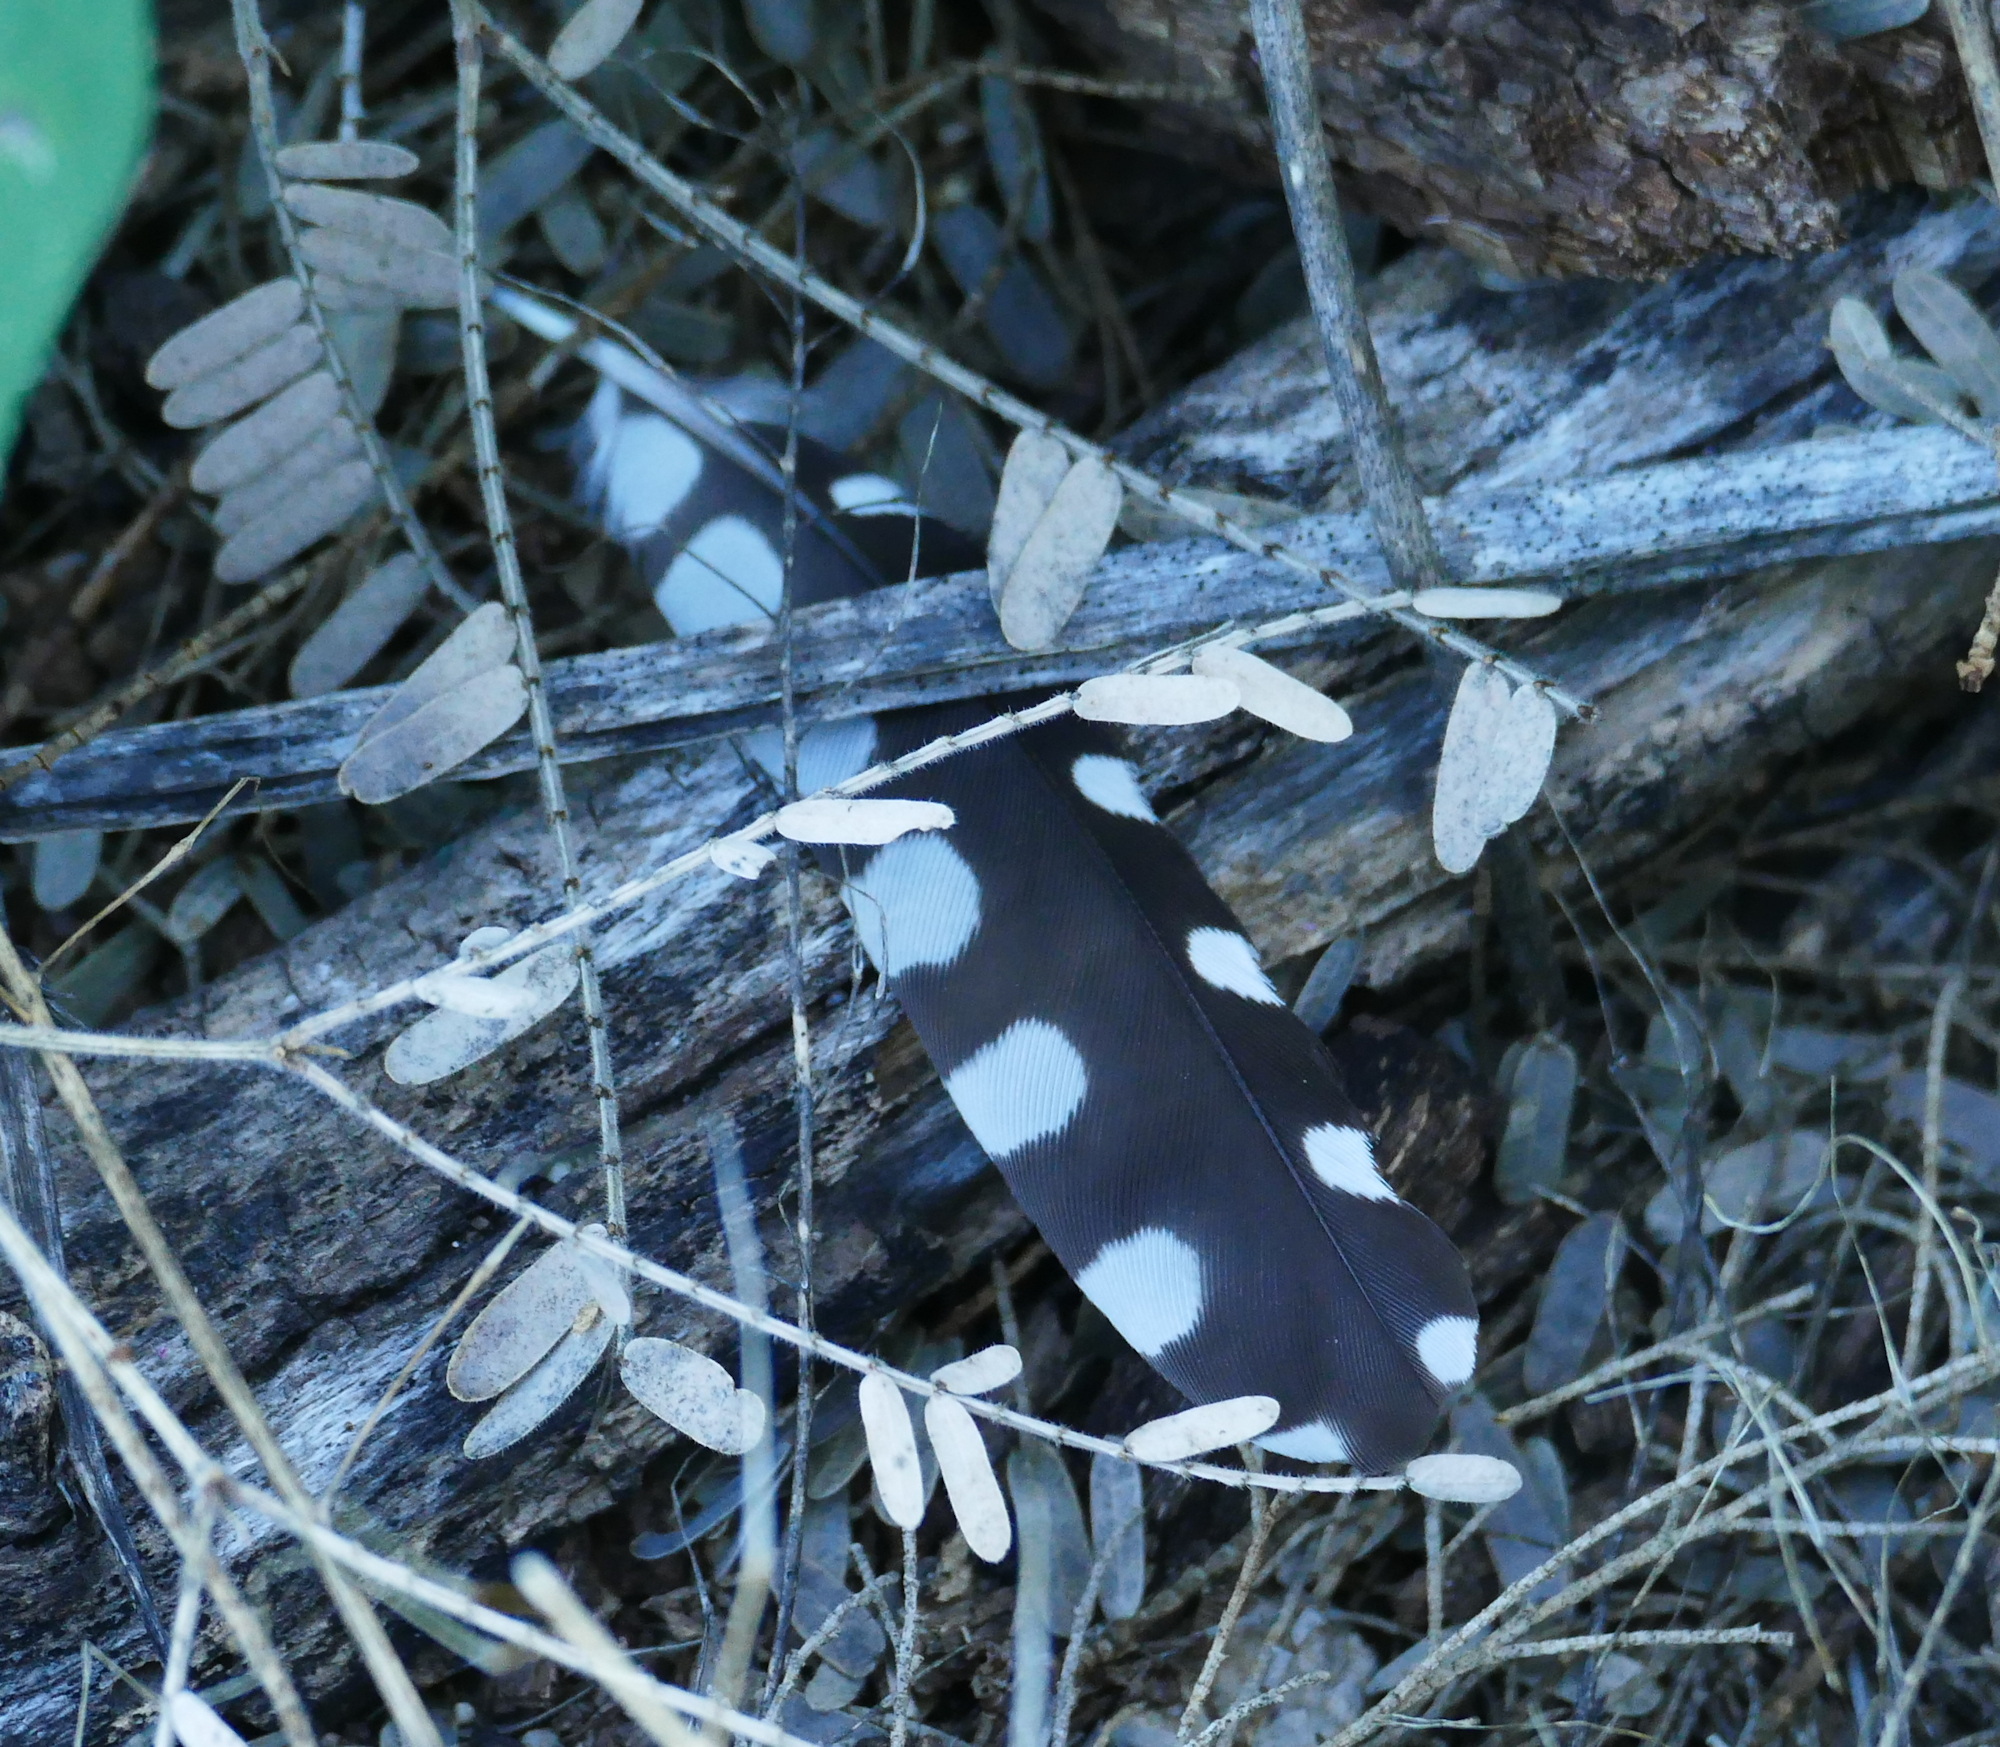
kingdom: Animalia
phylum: Chordata
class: Aves
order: Piciformes
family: Picidae
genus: Dryobates
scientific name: Dryobates scalaris
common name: Ladder-backed woodpecker
